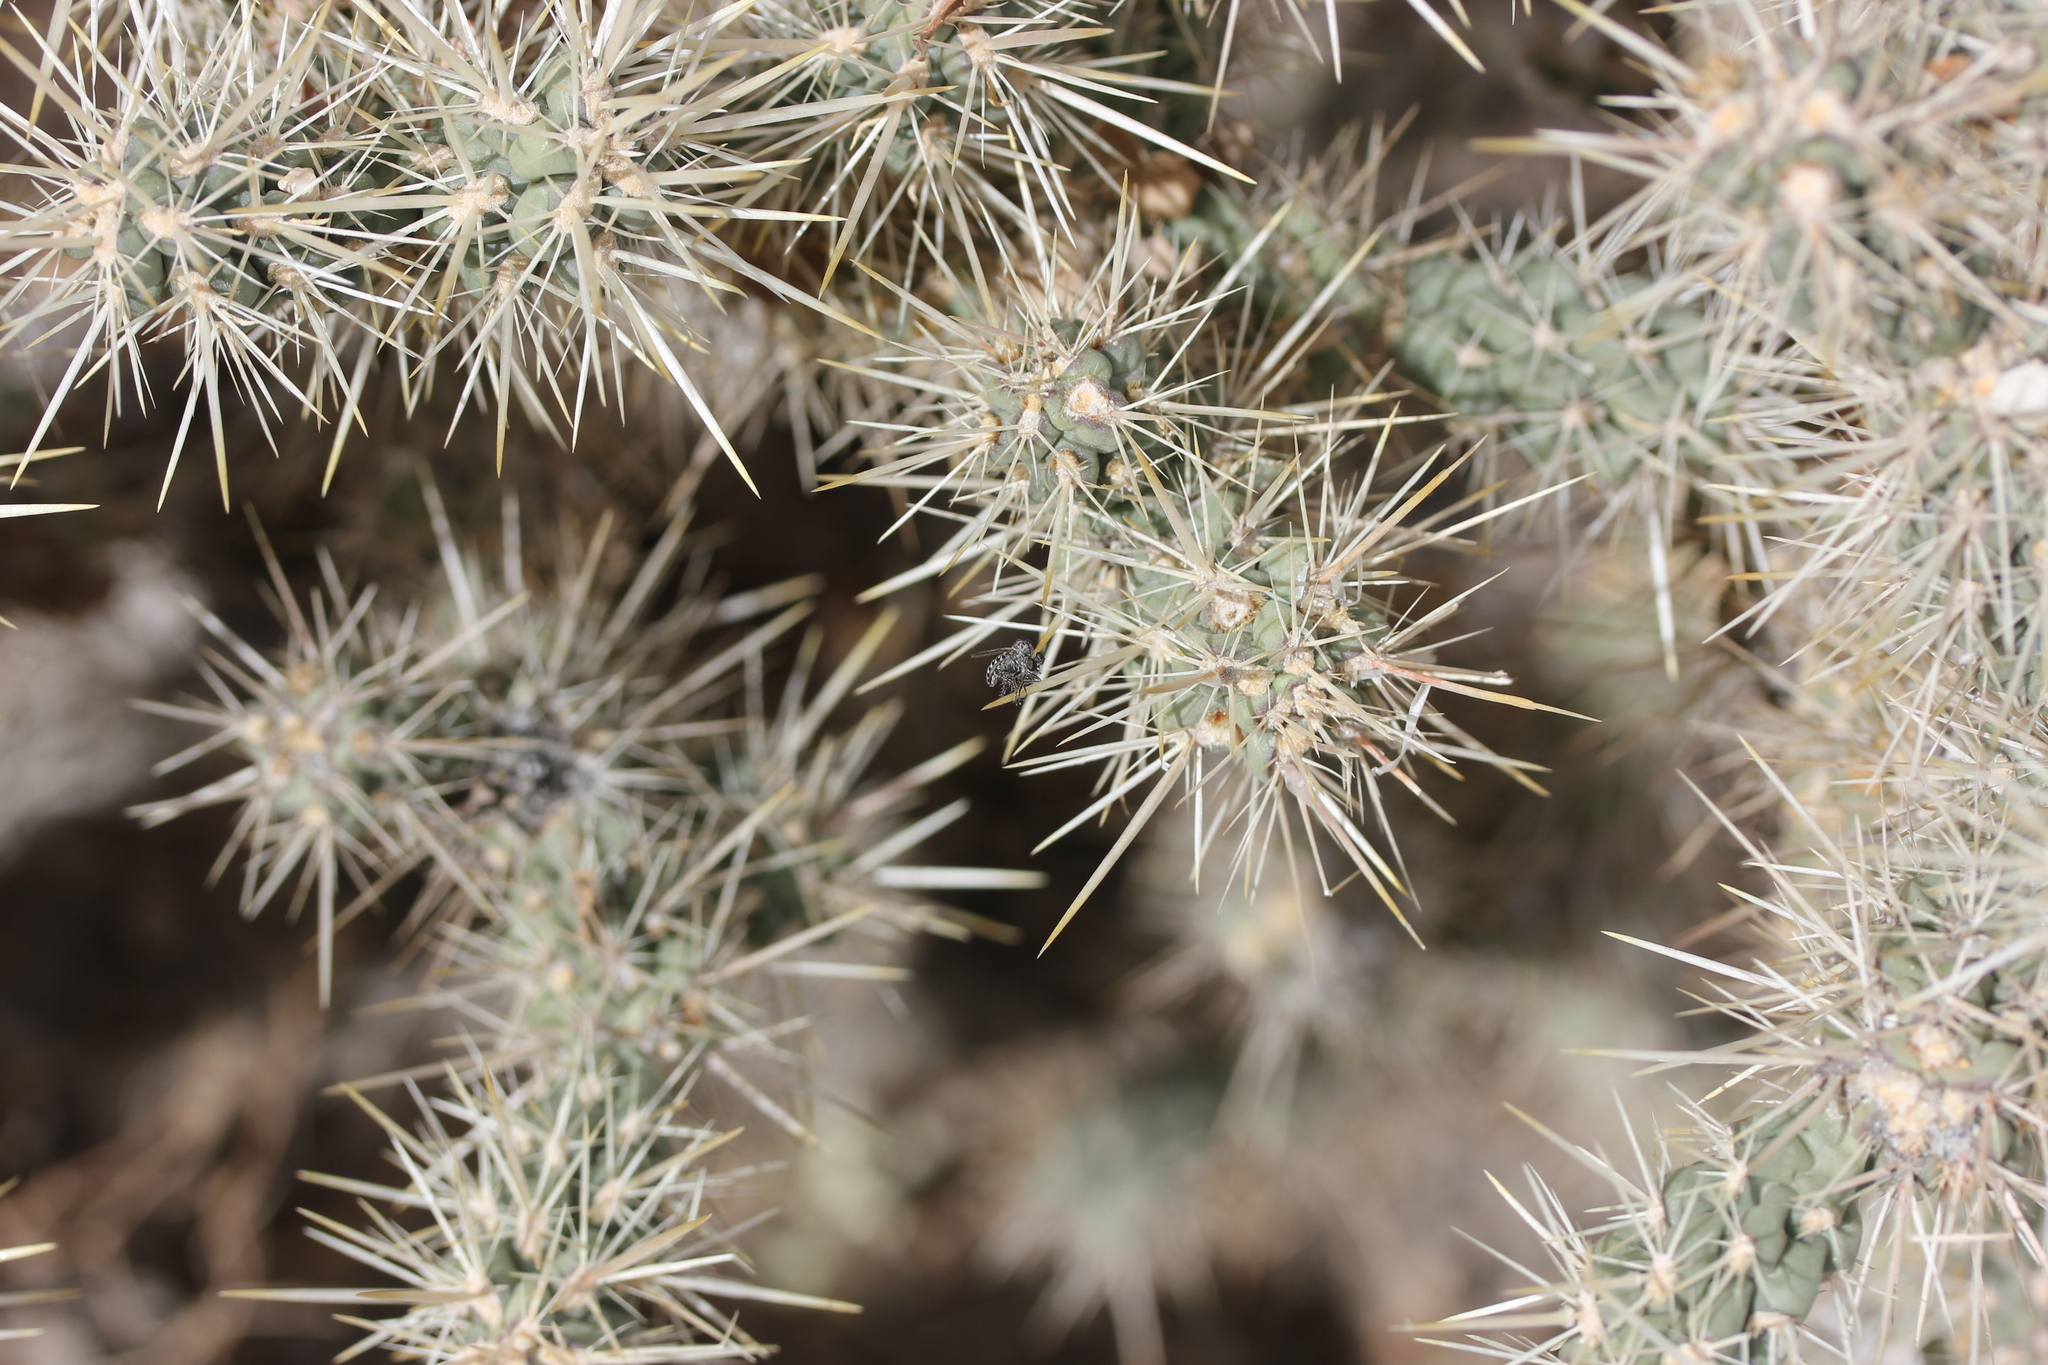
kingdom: Plantae
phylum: Tracheophyta
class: Magnoliopsida
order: Caryophyllales
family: Cactaceae
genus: Cylindropuntia
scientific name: Cylindropuntia echinocarpa
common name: Ground cholla
